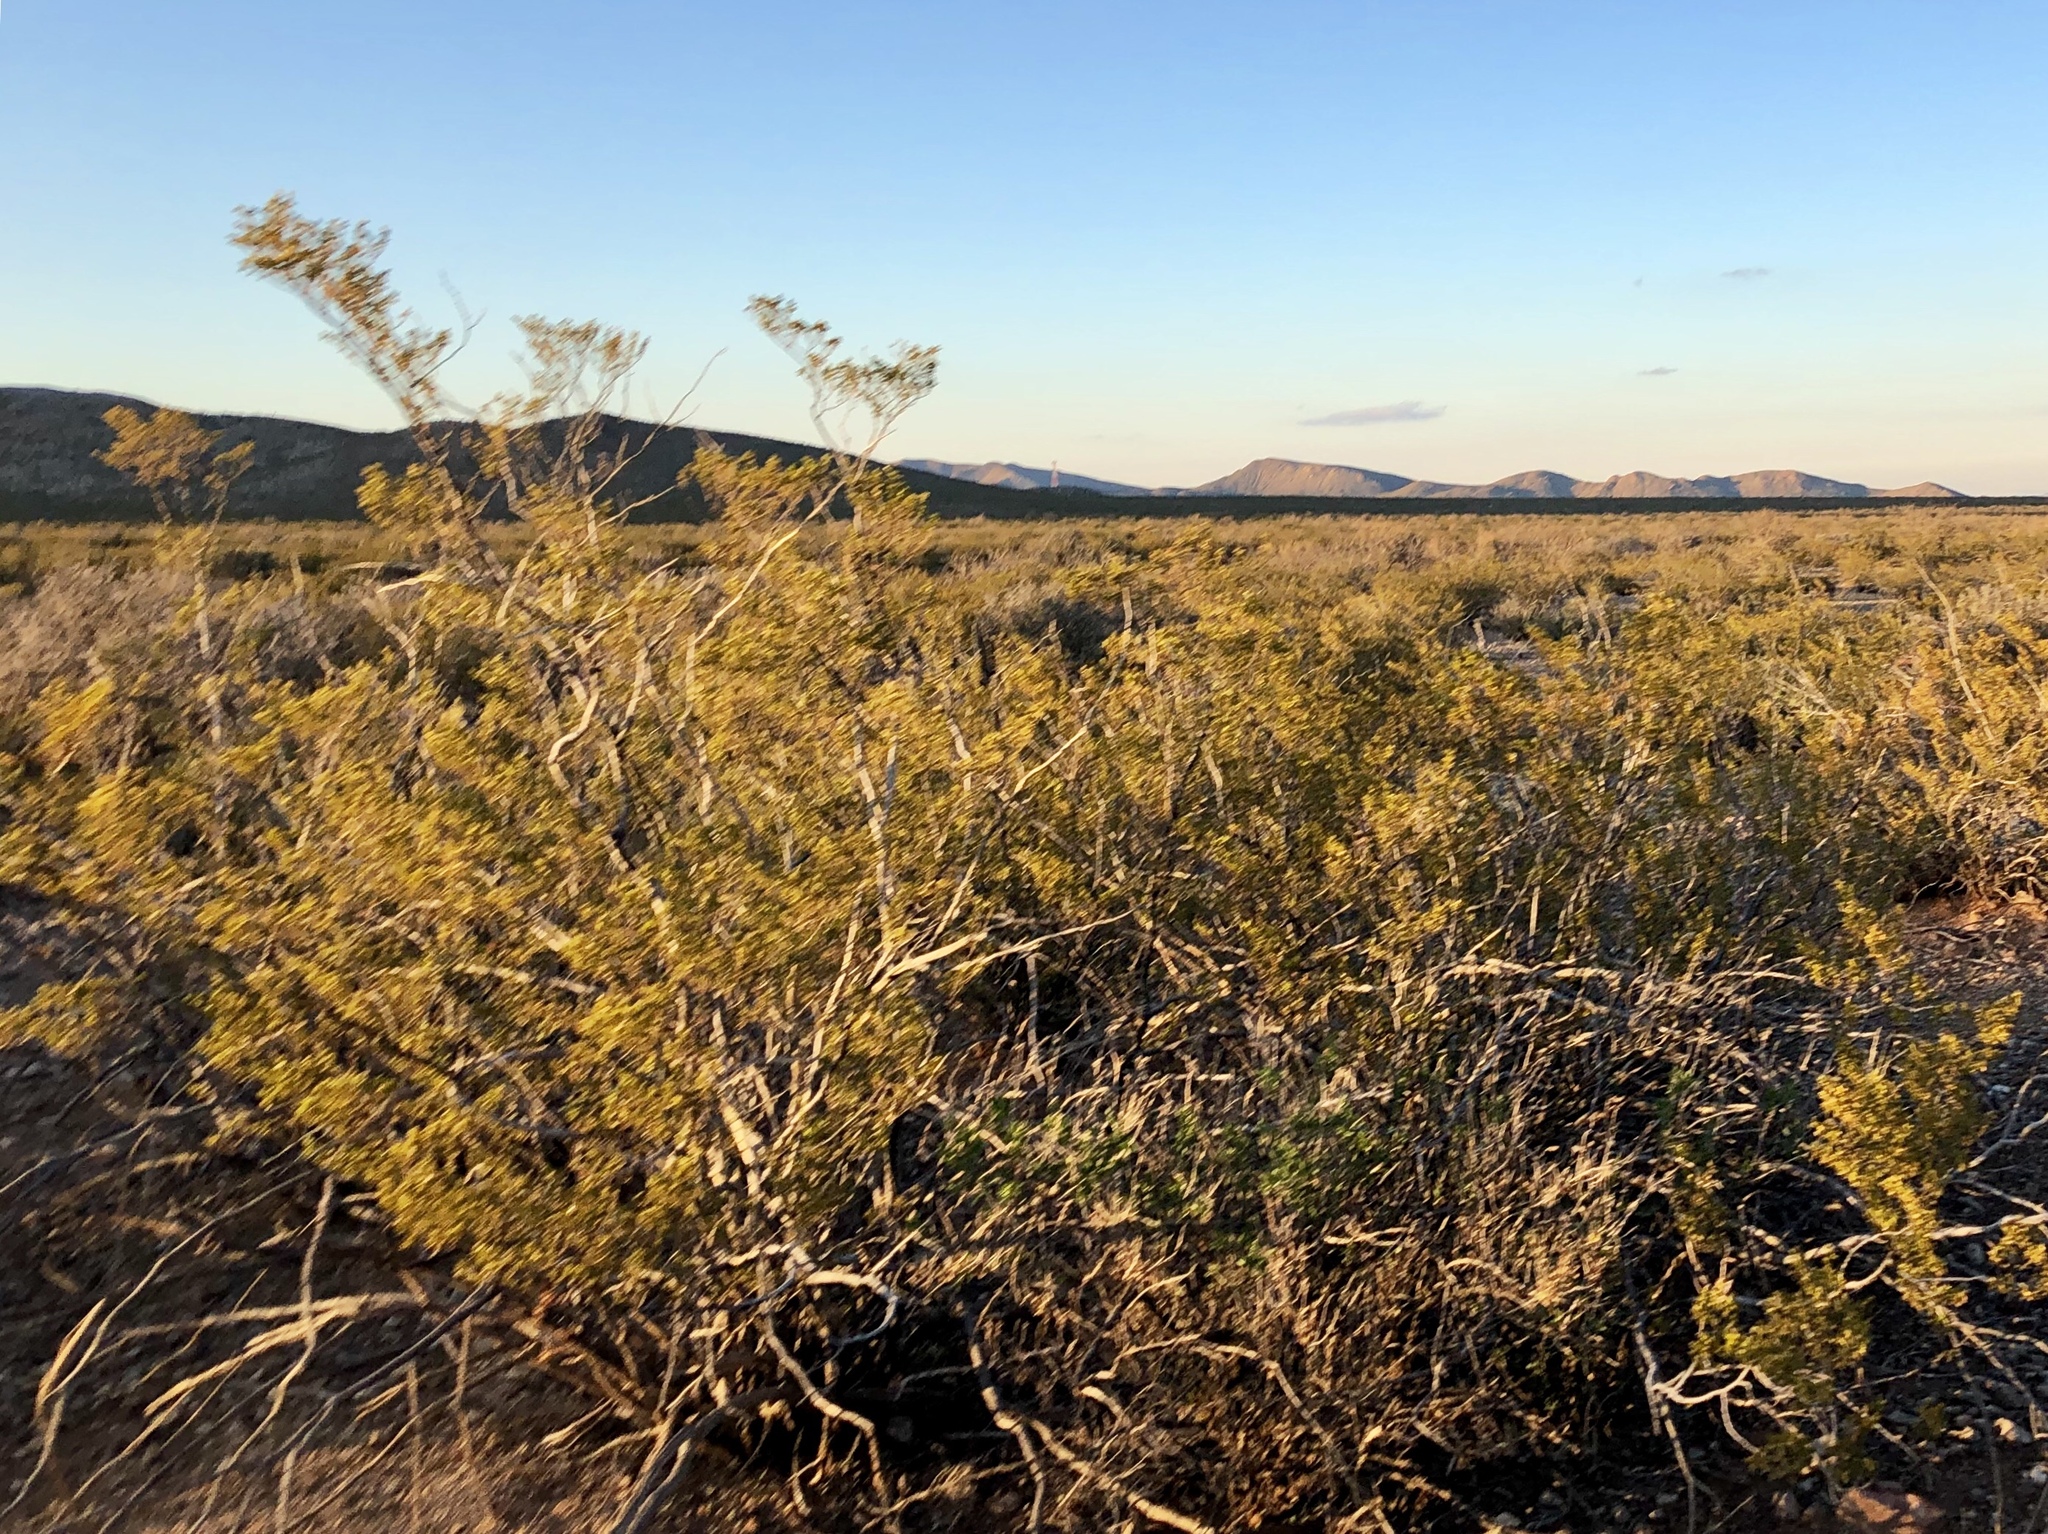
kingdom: Plantae
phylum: Tracheophyta
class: Magnoliopsida
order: Zygophyllales
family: Zygophyllaceae
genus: Larrea
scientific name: Larrea tridentata
